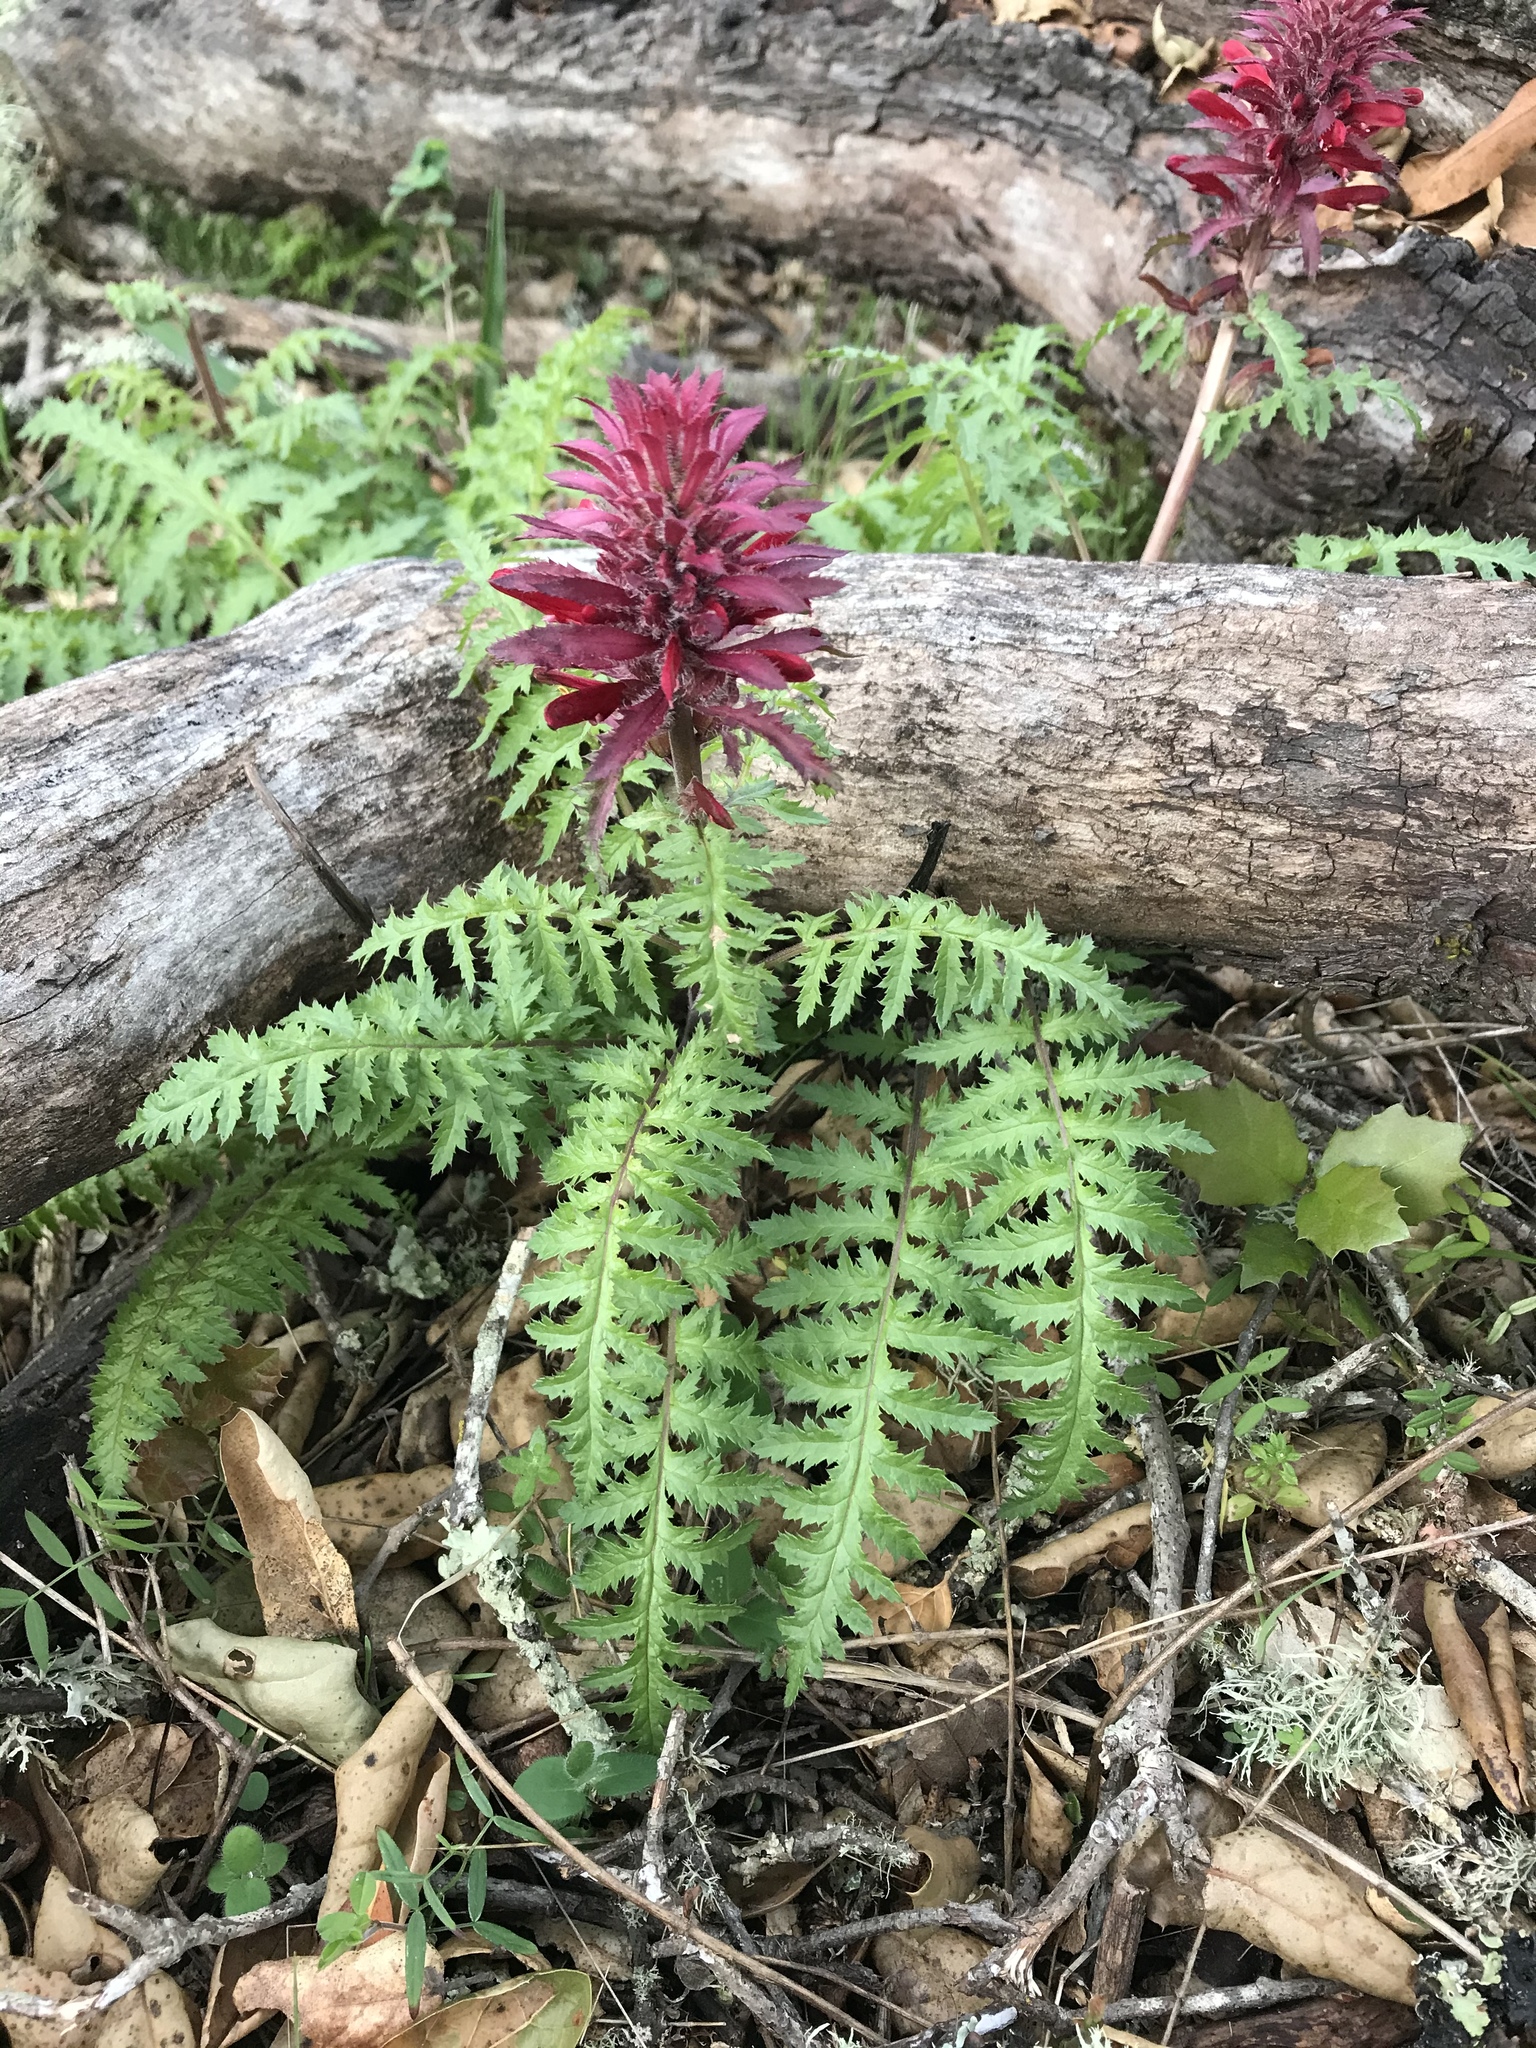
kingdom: Plantae
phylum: Tracheophyta
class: Magnoliopsida
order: Lamiales
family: Orobanchaceae
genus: Pedicularis
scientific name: Pedicularis densiflora
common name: Indian warrior
